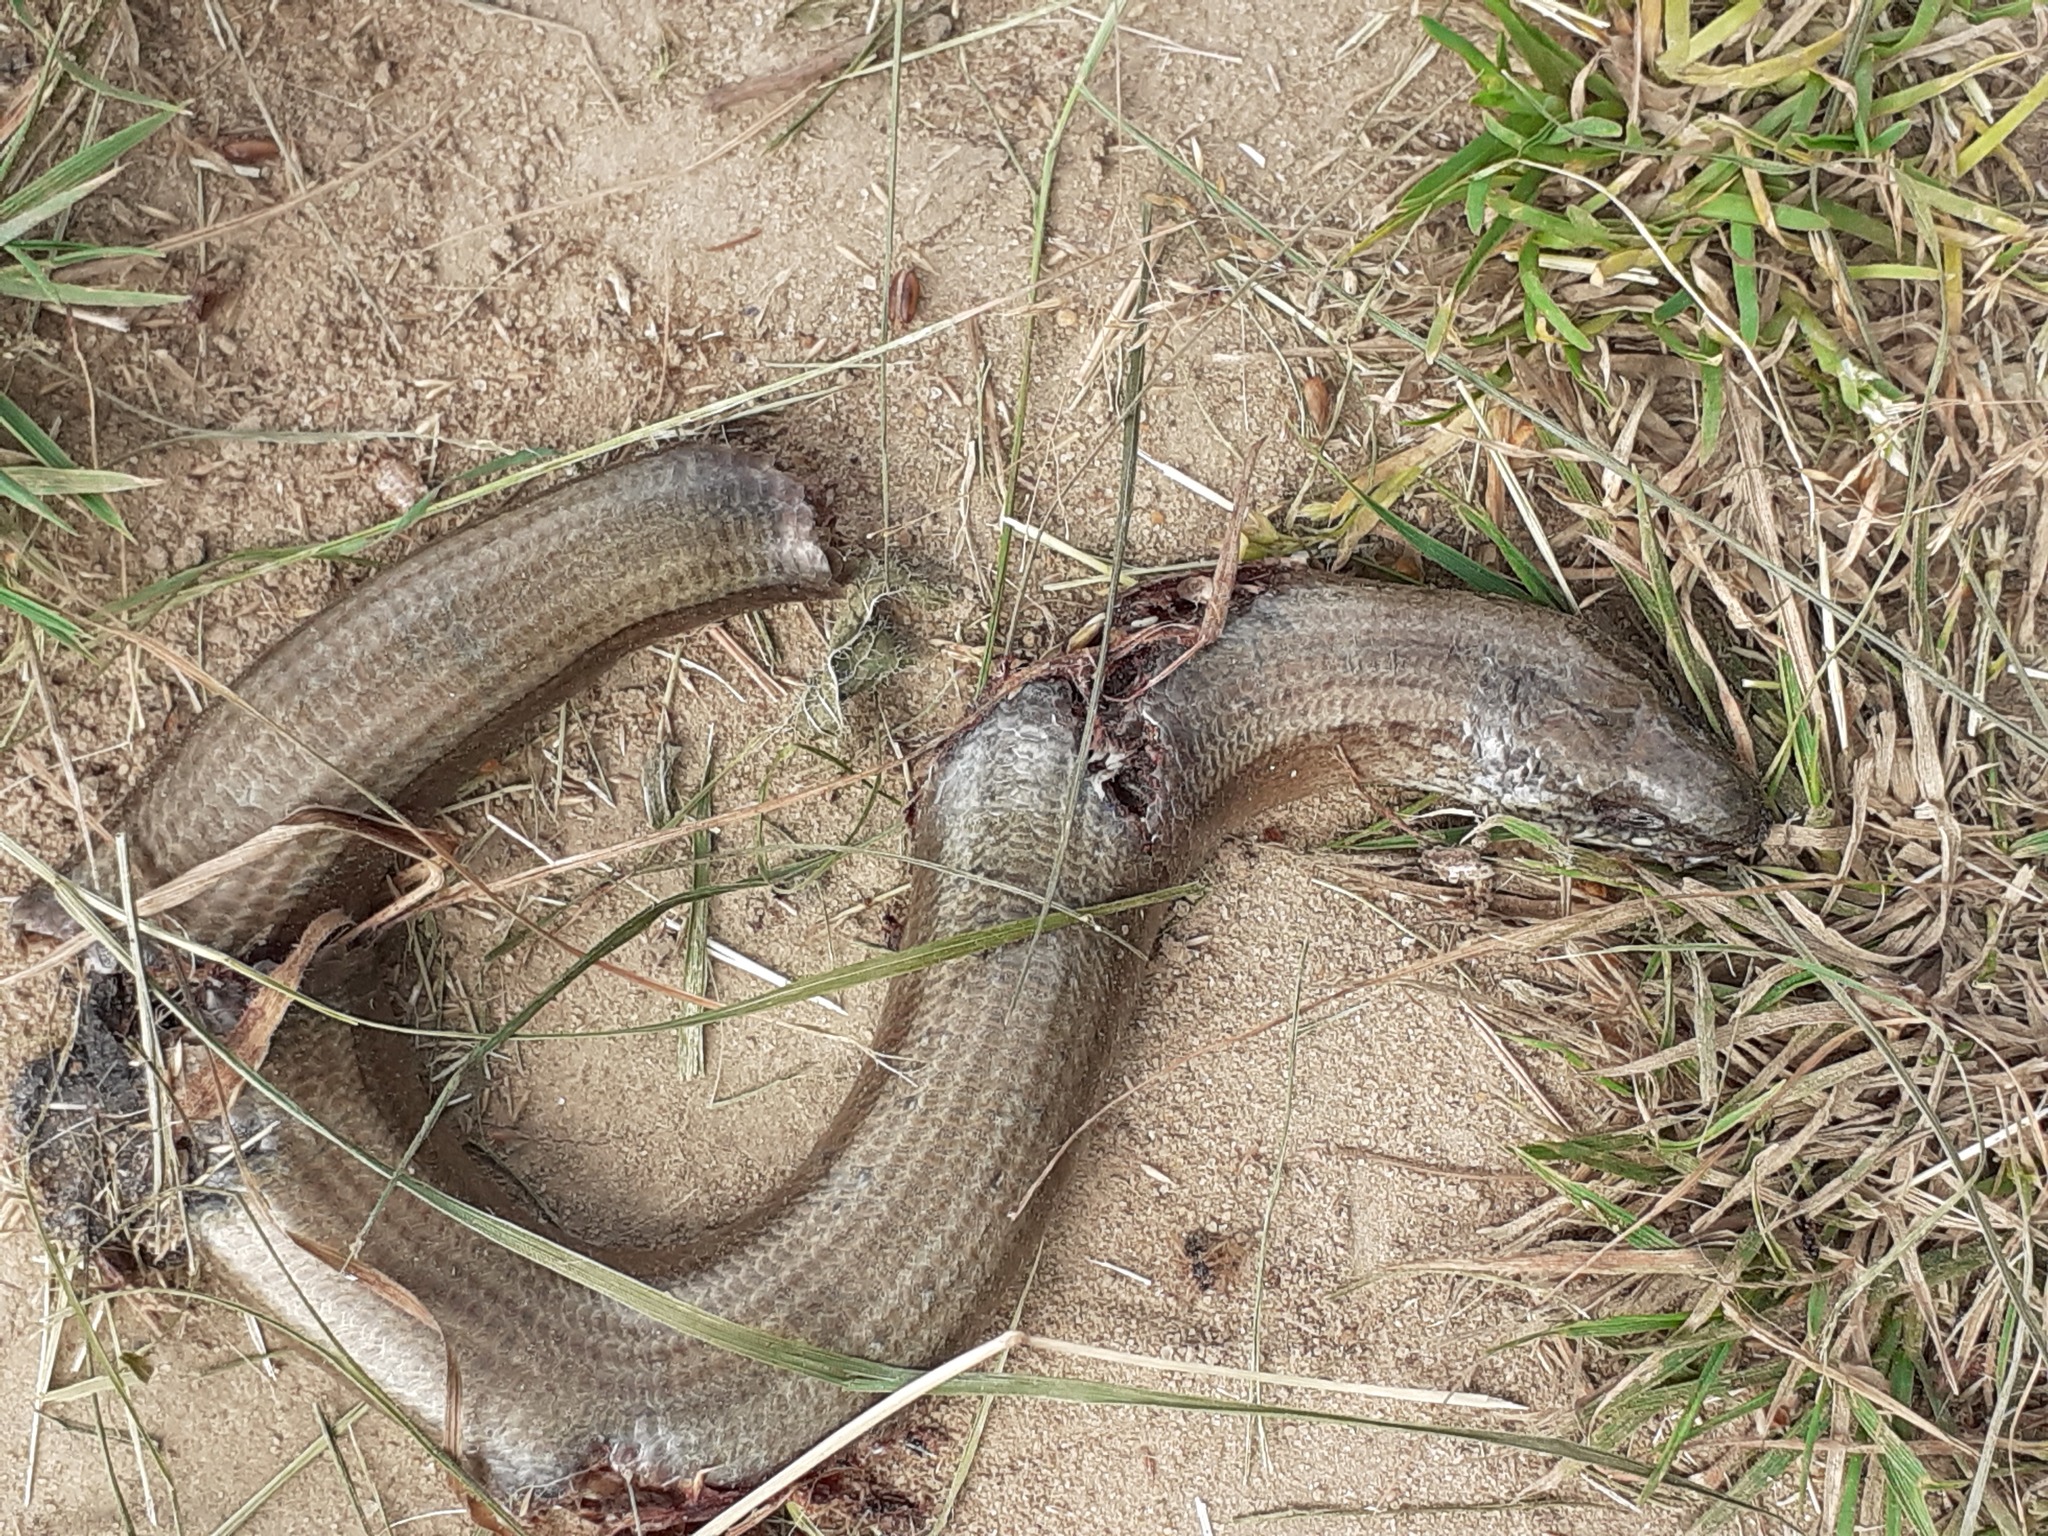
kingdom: Animalia
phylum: Chordata
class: Squamata
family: Anguidae
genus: Anguis
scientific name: Anguis fragilis
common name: Slow worm
